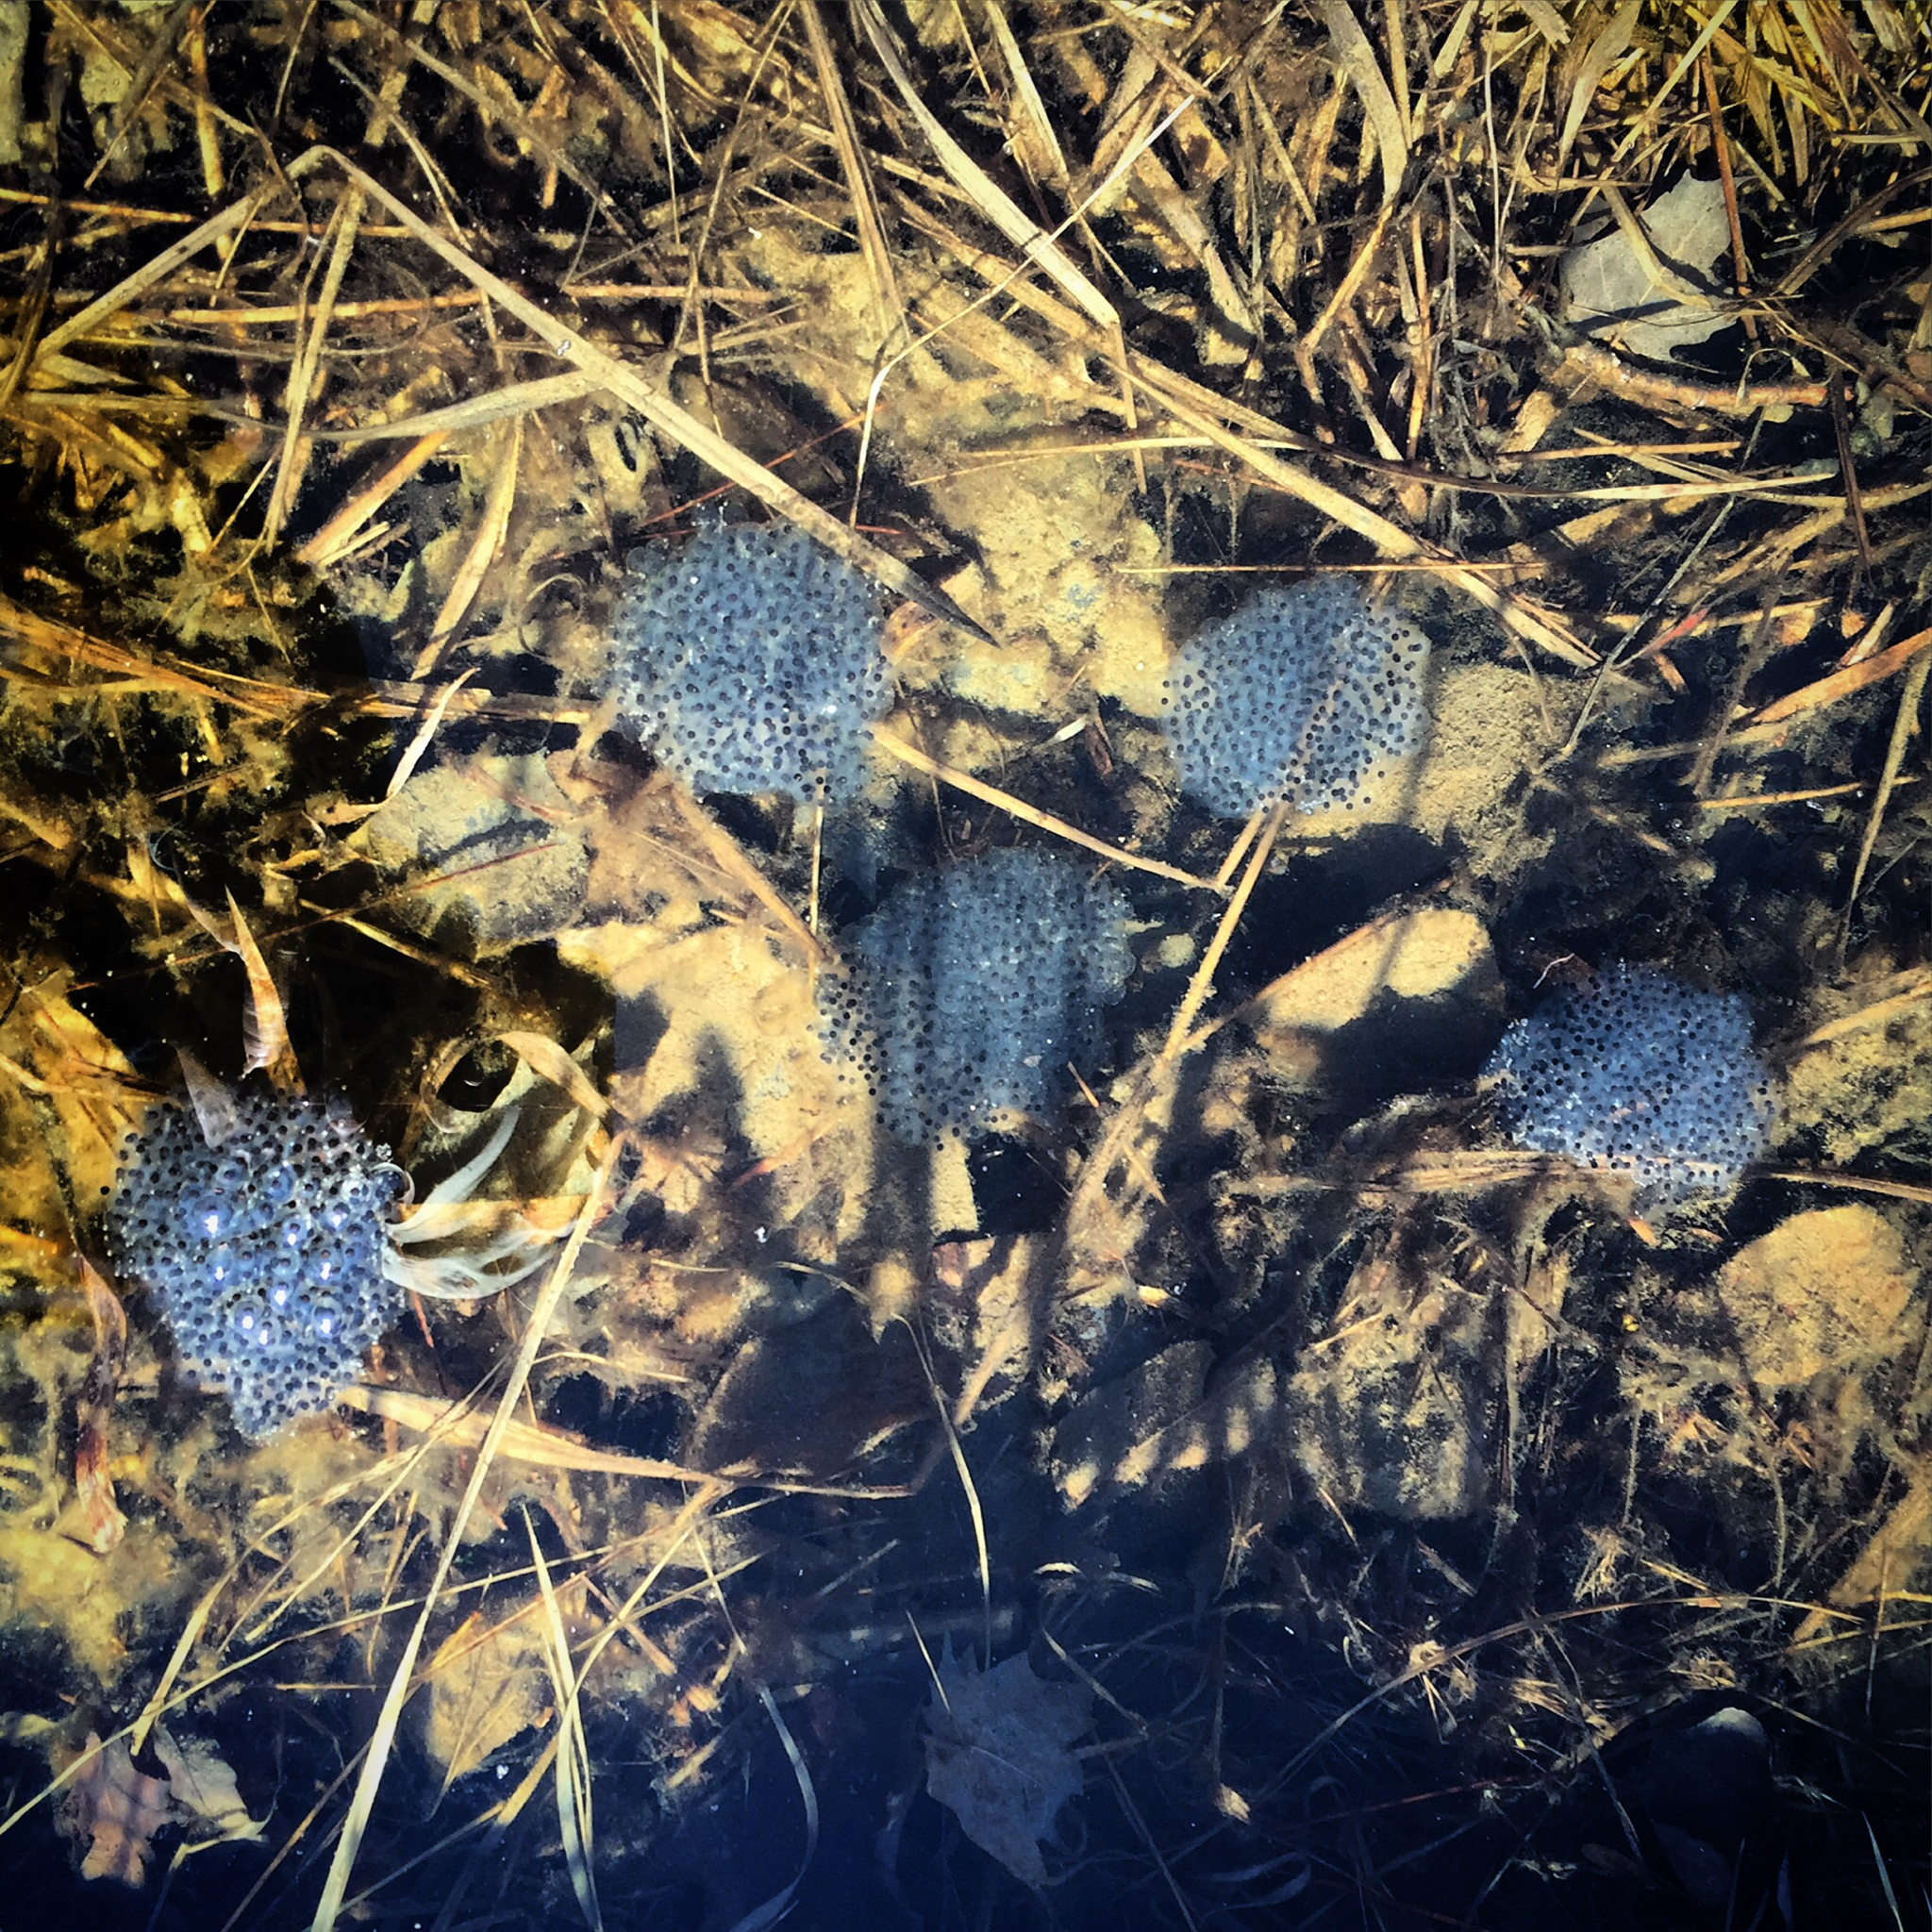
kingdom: Animalia
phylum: Chordata
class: Amphibia
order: Anura
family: Ranidae
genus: Lithobates
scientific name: Lithobates sylvaticus
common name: Wood frog
